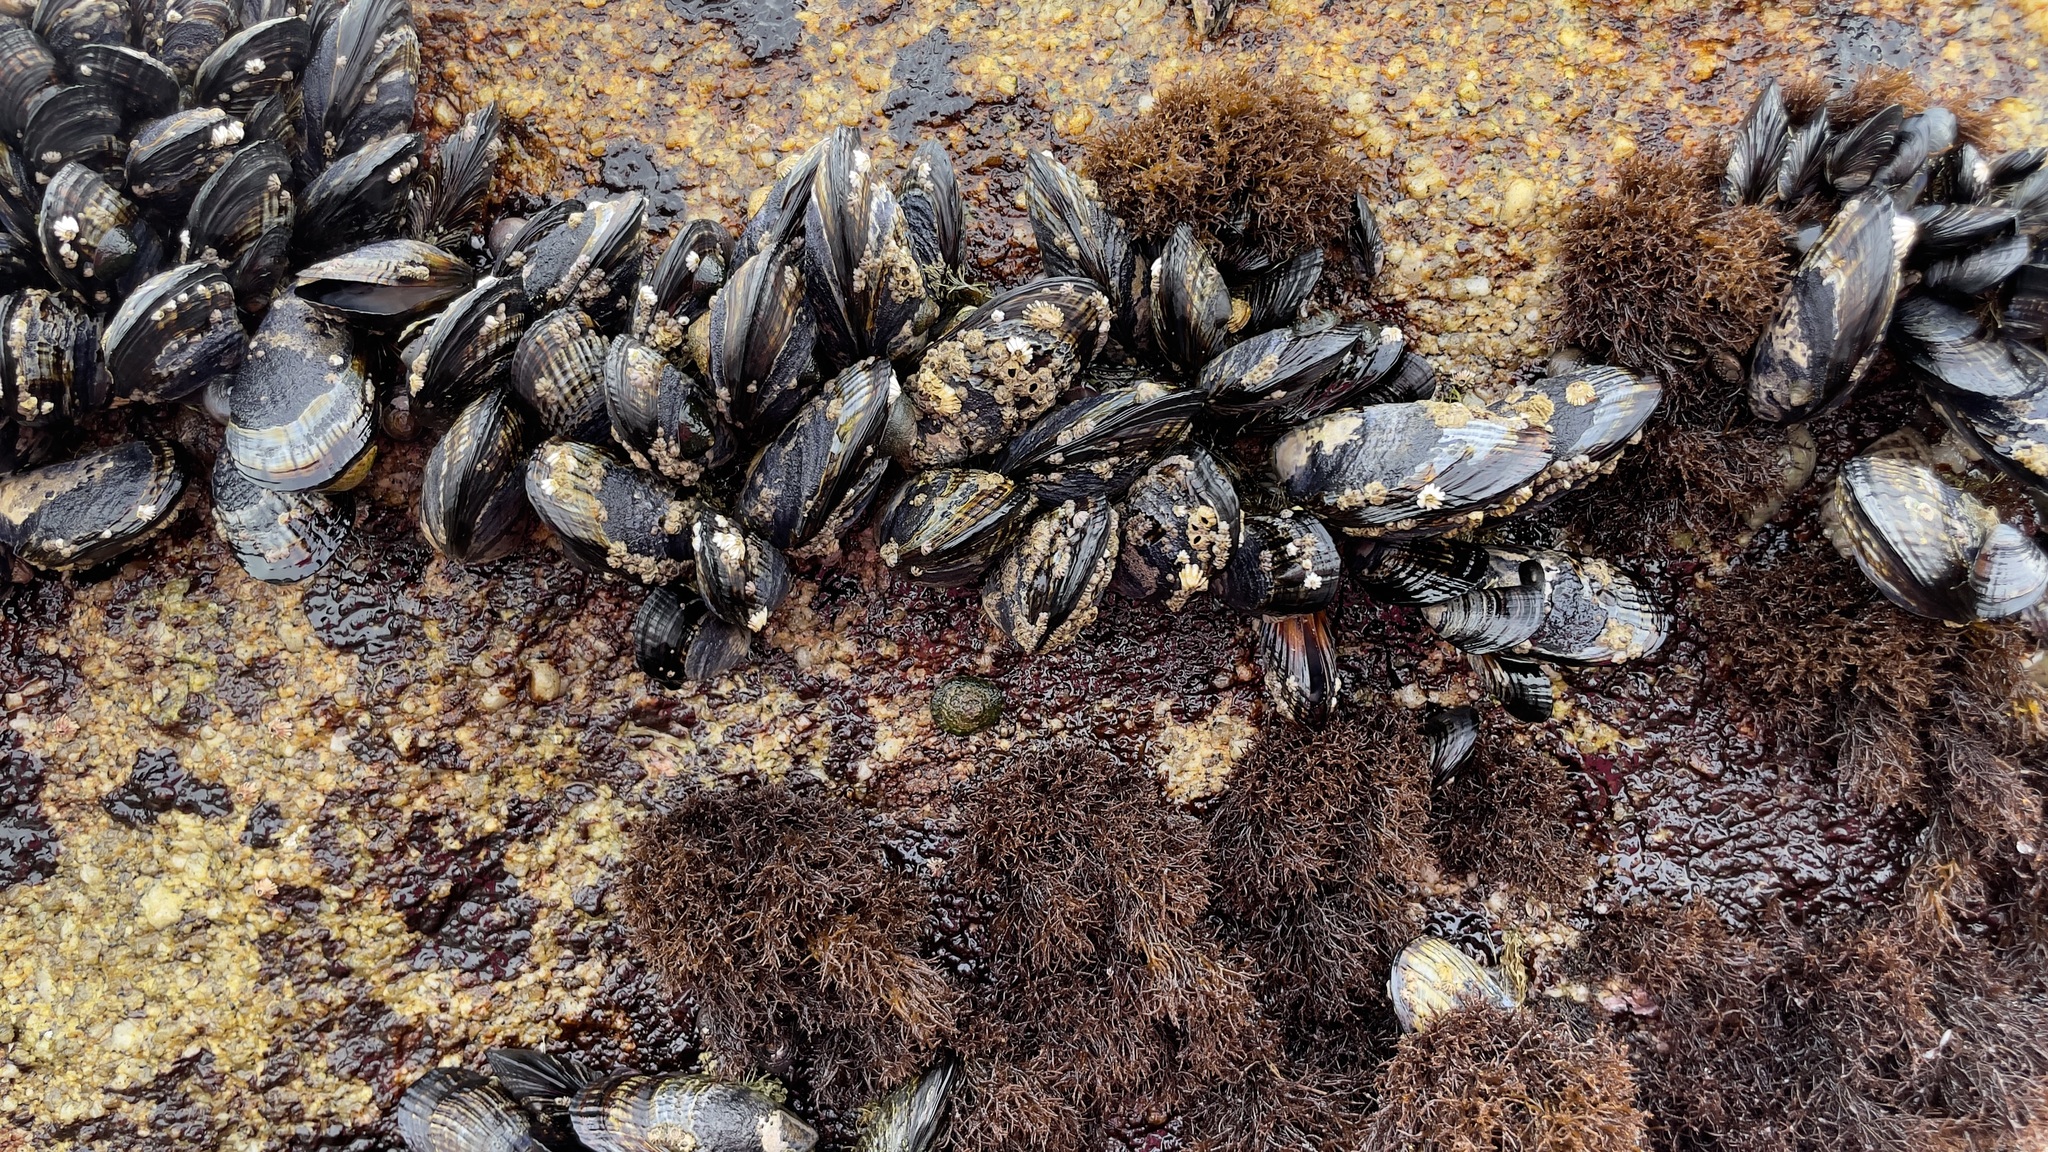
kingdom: Animalia
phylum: Mollusca
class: Bivalvia
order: Mytilida
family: Mytilidae
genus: Mytilus
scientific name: Mytilus californianus
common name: California mussel
